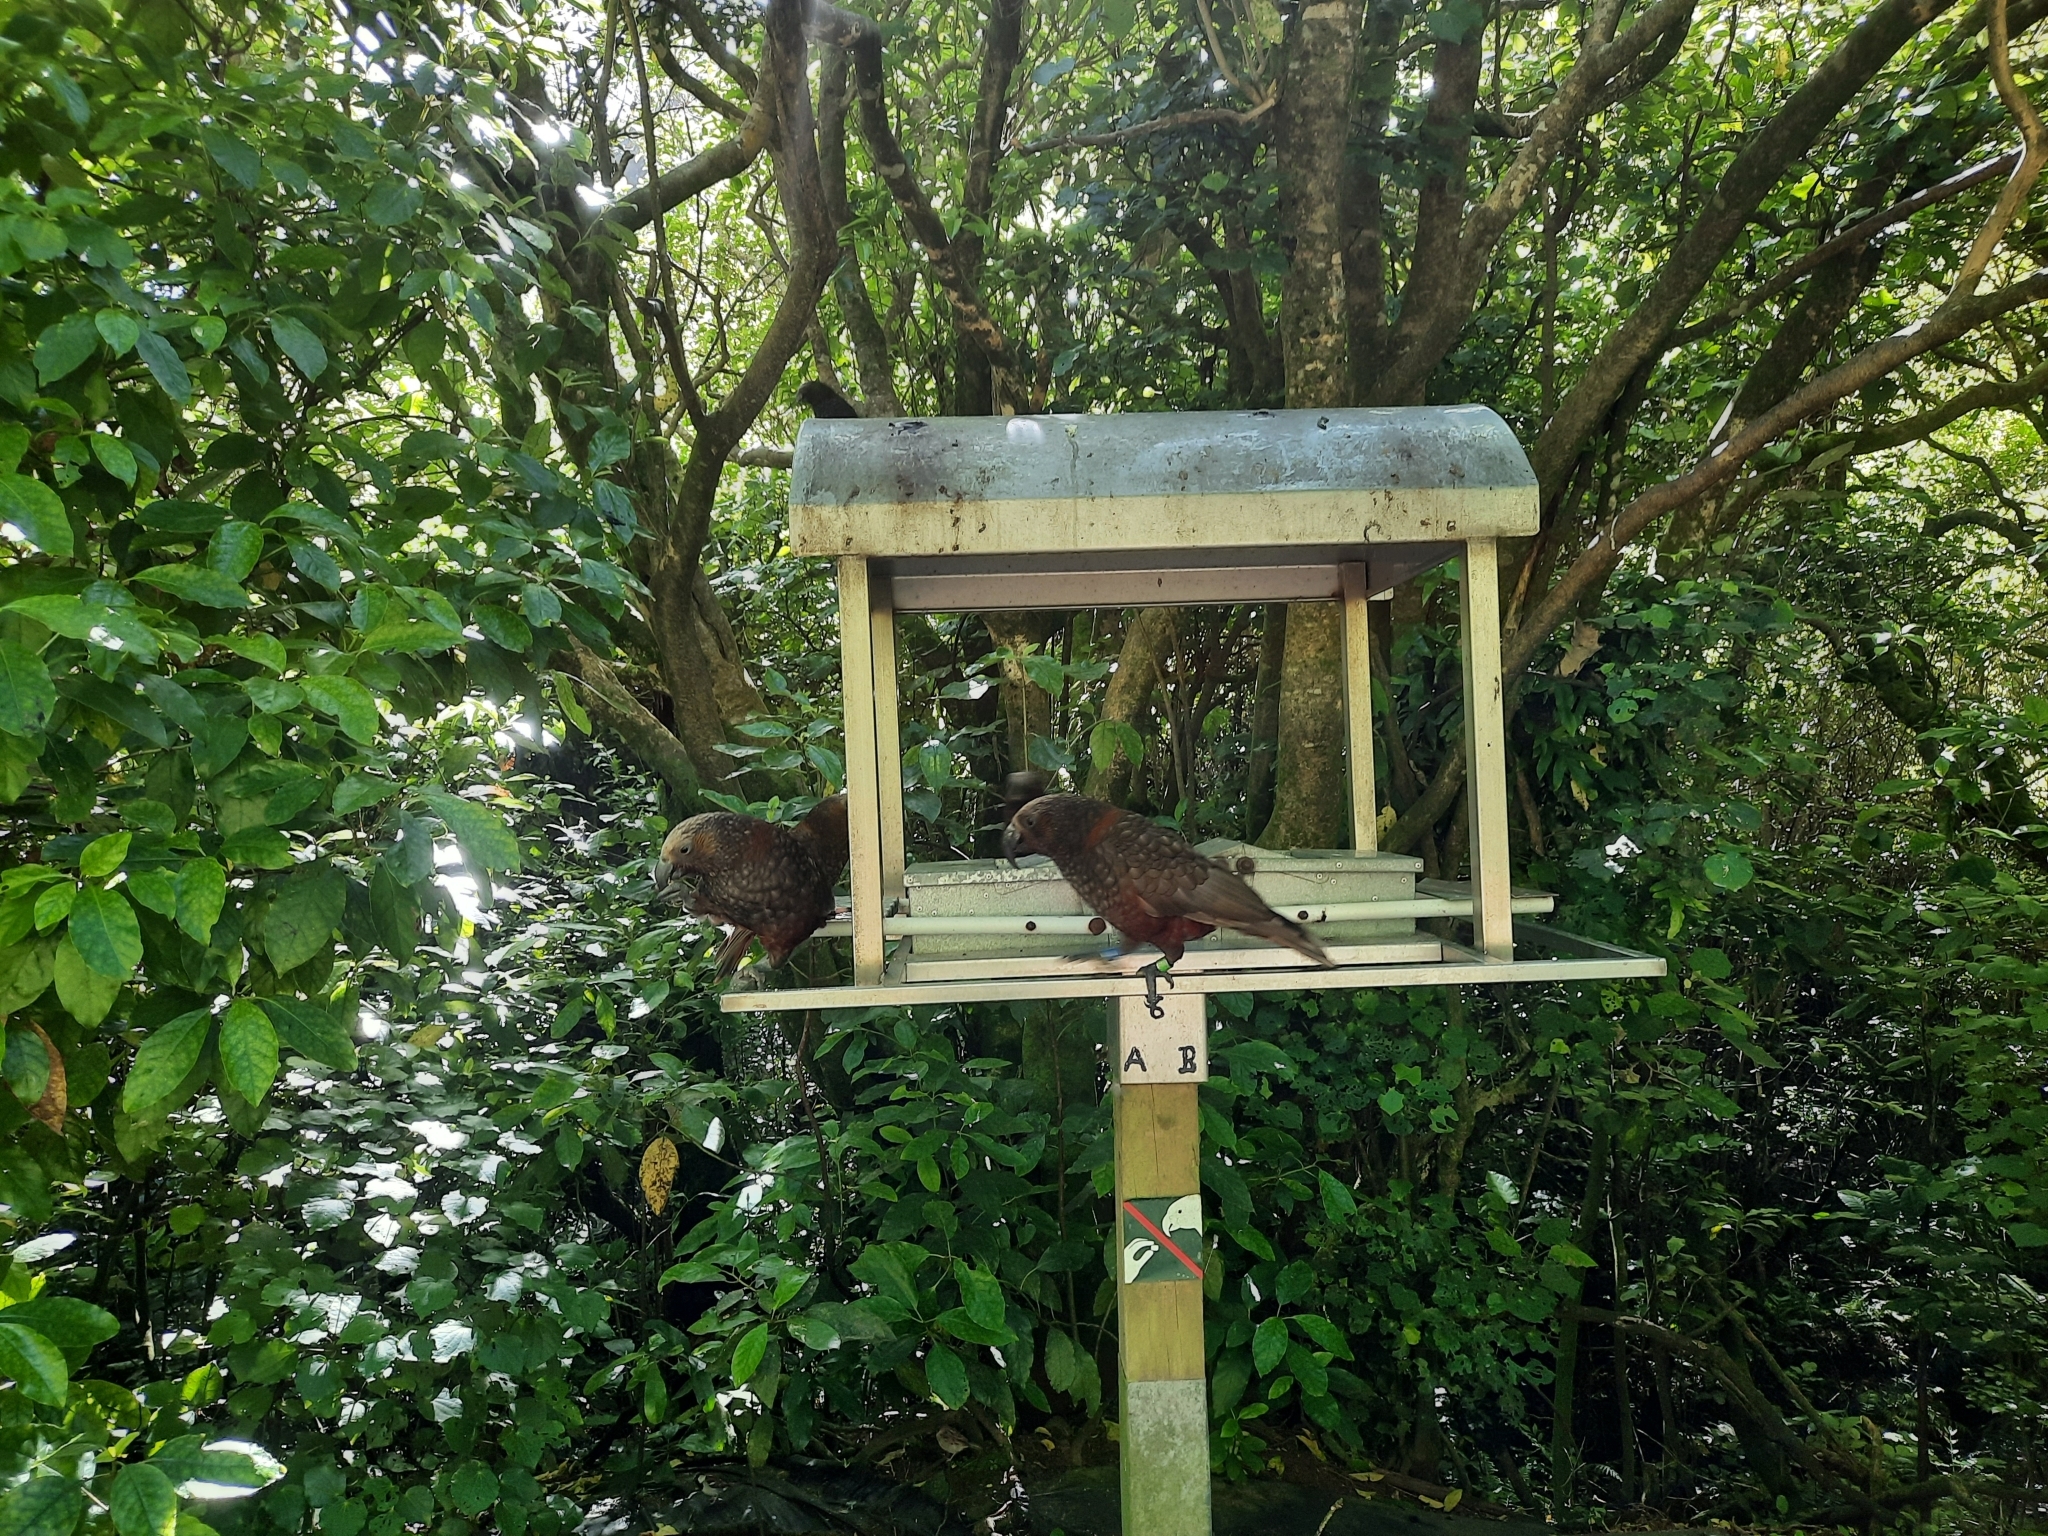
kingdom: Animalia
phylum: Chordata
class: Aves
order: Psittaciformes
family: Psittacidae
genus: Nestor
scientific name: Nestor meridionalis
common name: New zealand kaka
